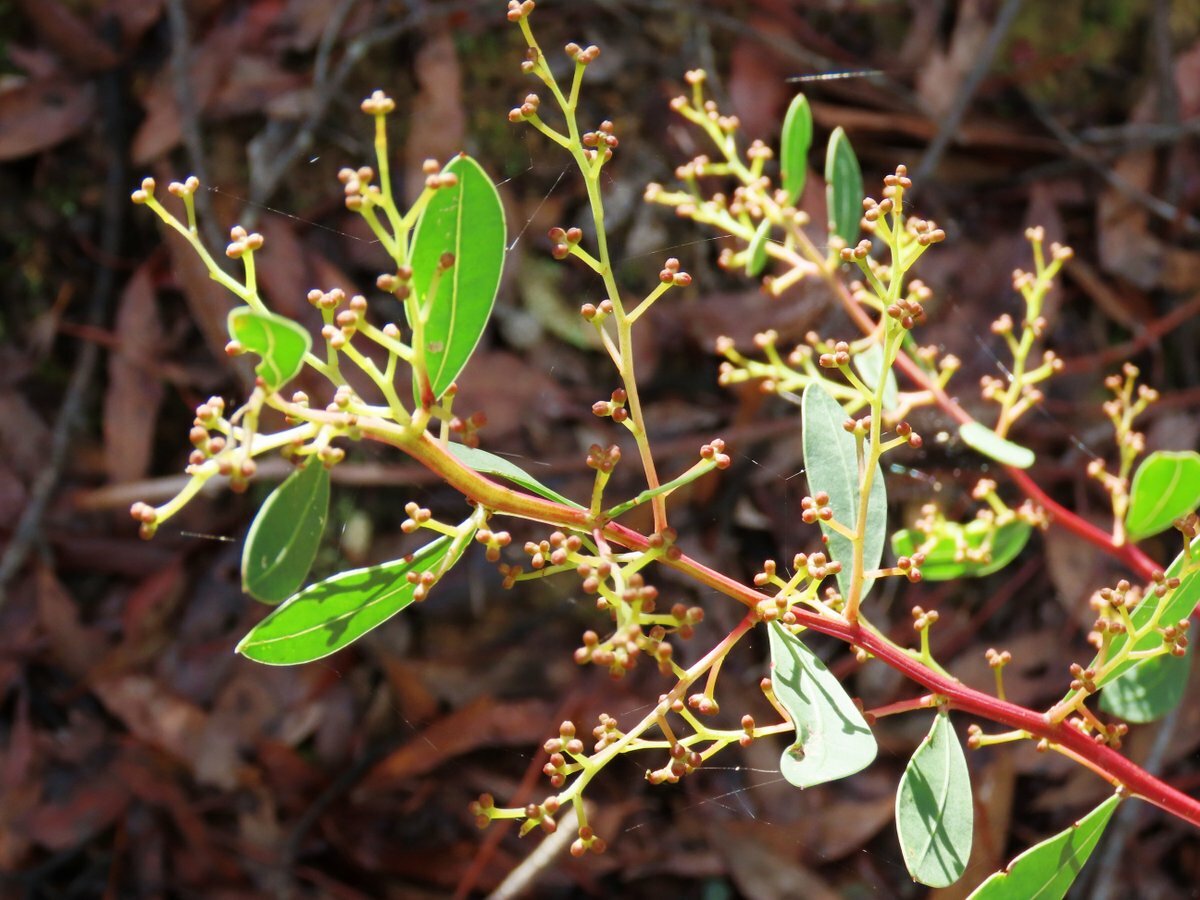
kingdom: Plantae
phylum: Tracheophyta
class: Magnoliopsida
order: Fabales
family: Fabaceae
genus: Acacia
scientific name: Acacia myrtifolia
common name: Myrtle wattle
